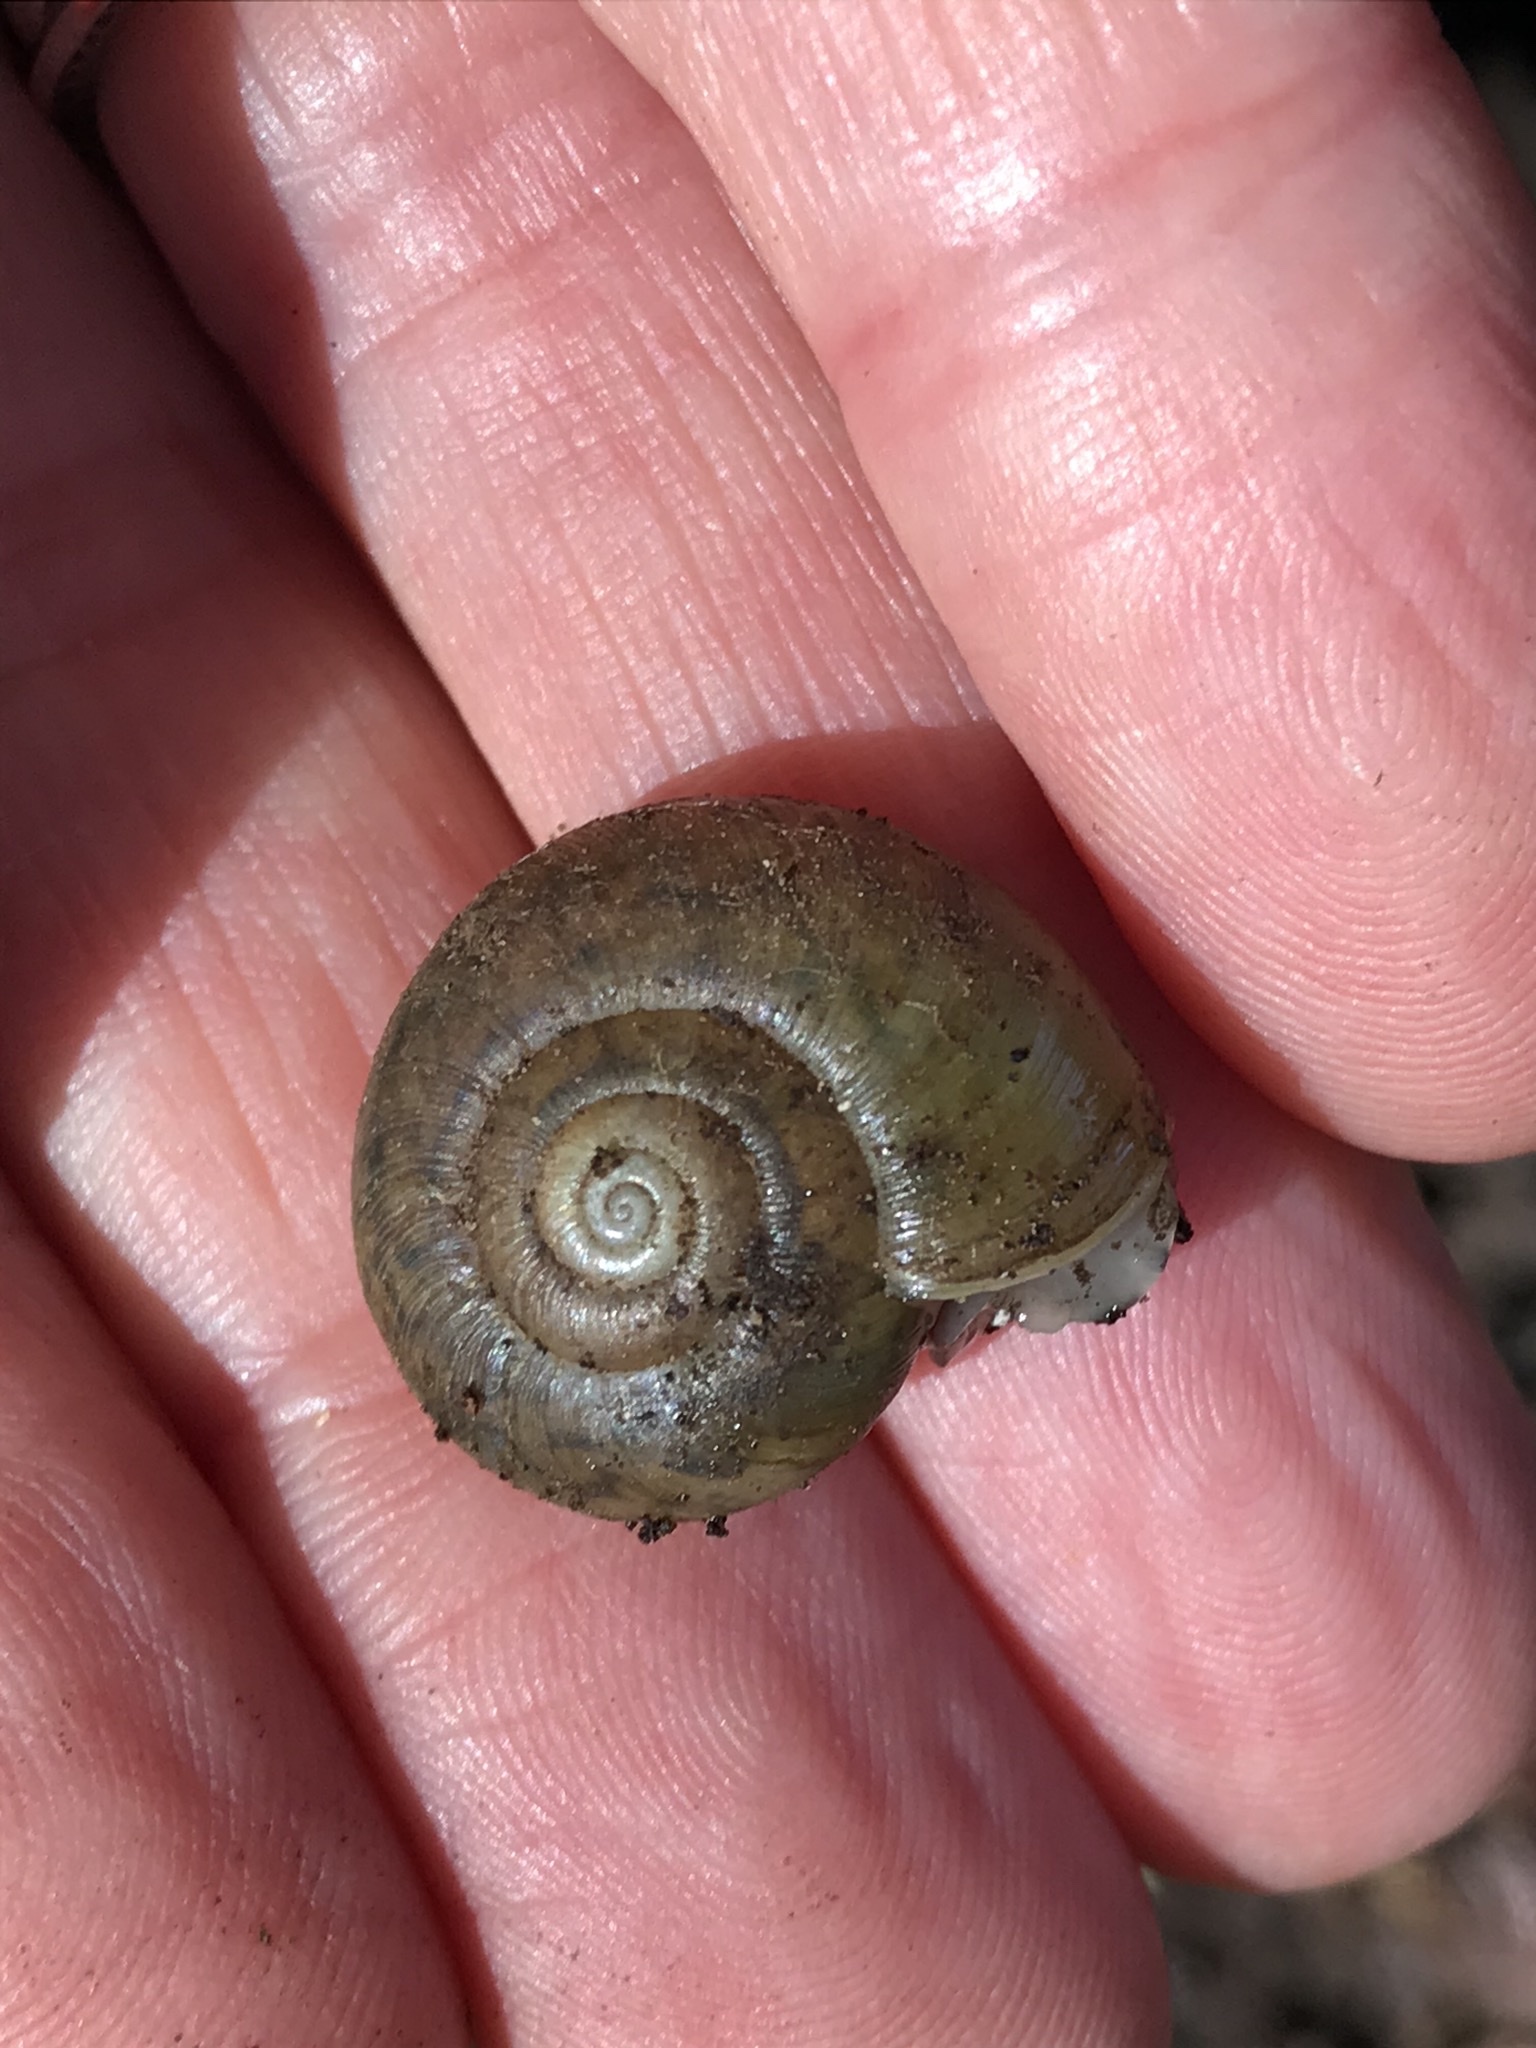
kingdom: Animalia
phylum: Mollusca
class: Gastropoda
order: Stylommatophora
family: Haplotrematidae
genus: Haplotrema
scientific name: Haplotrema minimum
